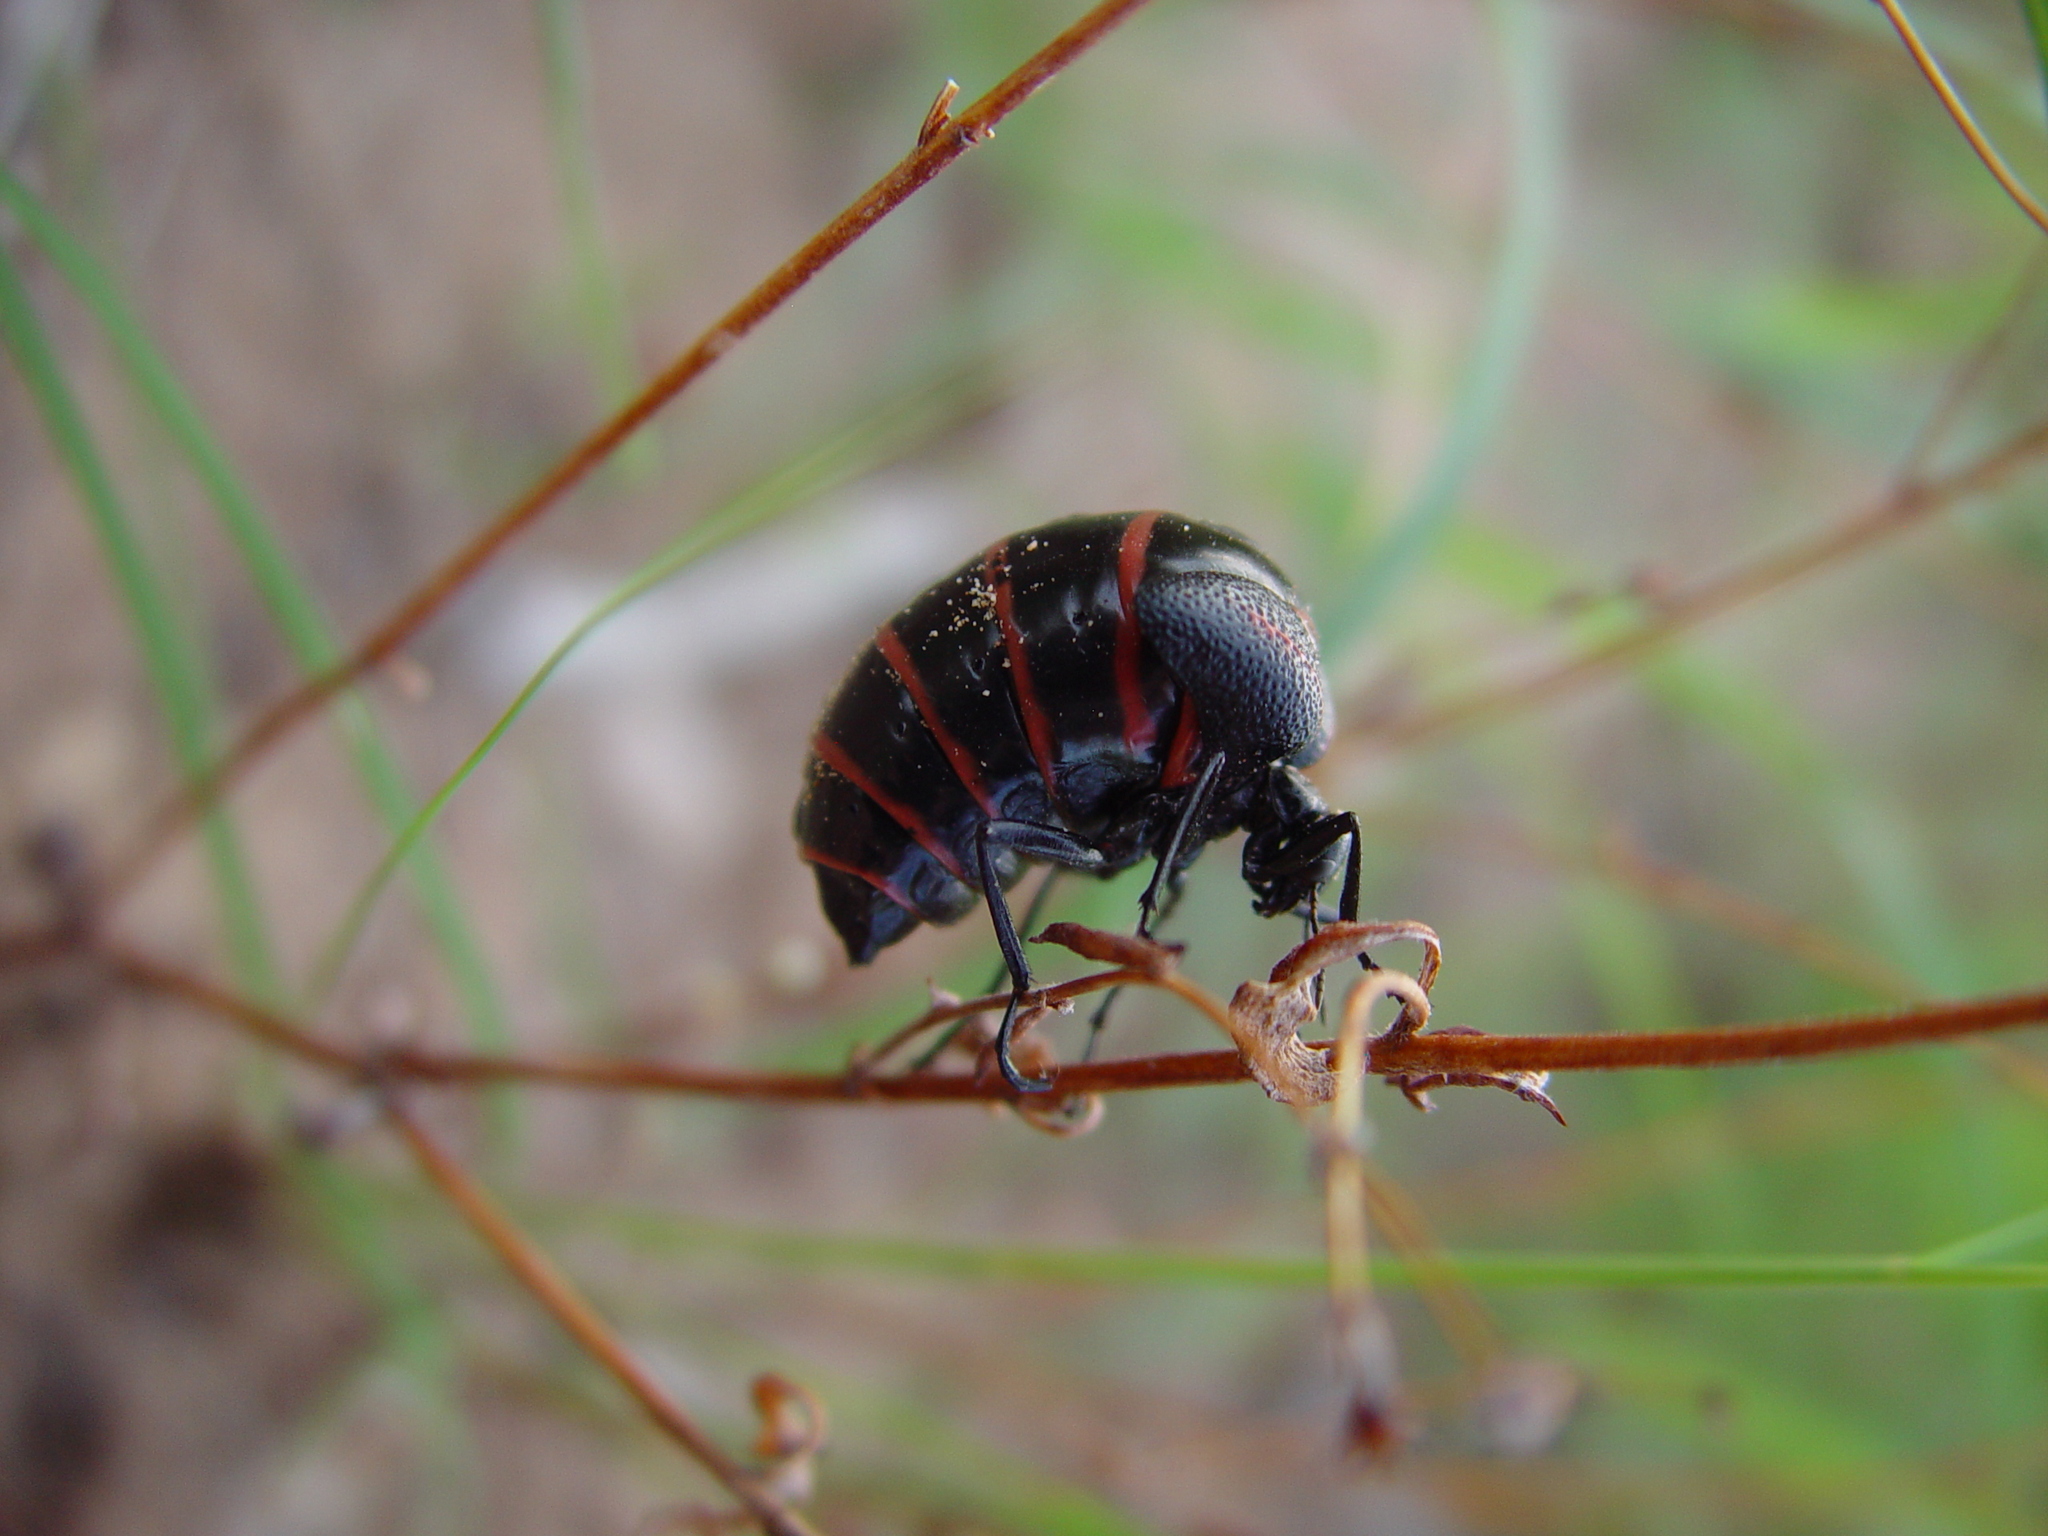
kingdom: Animalia
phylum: Arthropoda
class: Insecta
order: Coleoptera
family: Meloidae
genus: Megetra
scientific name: Megetra punctata
